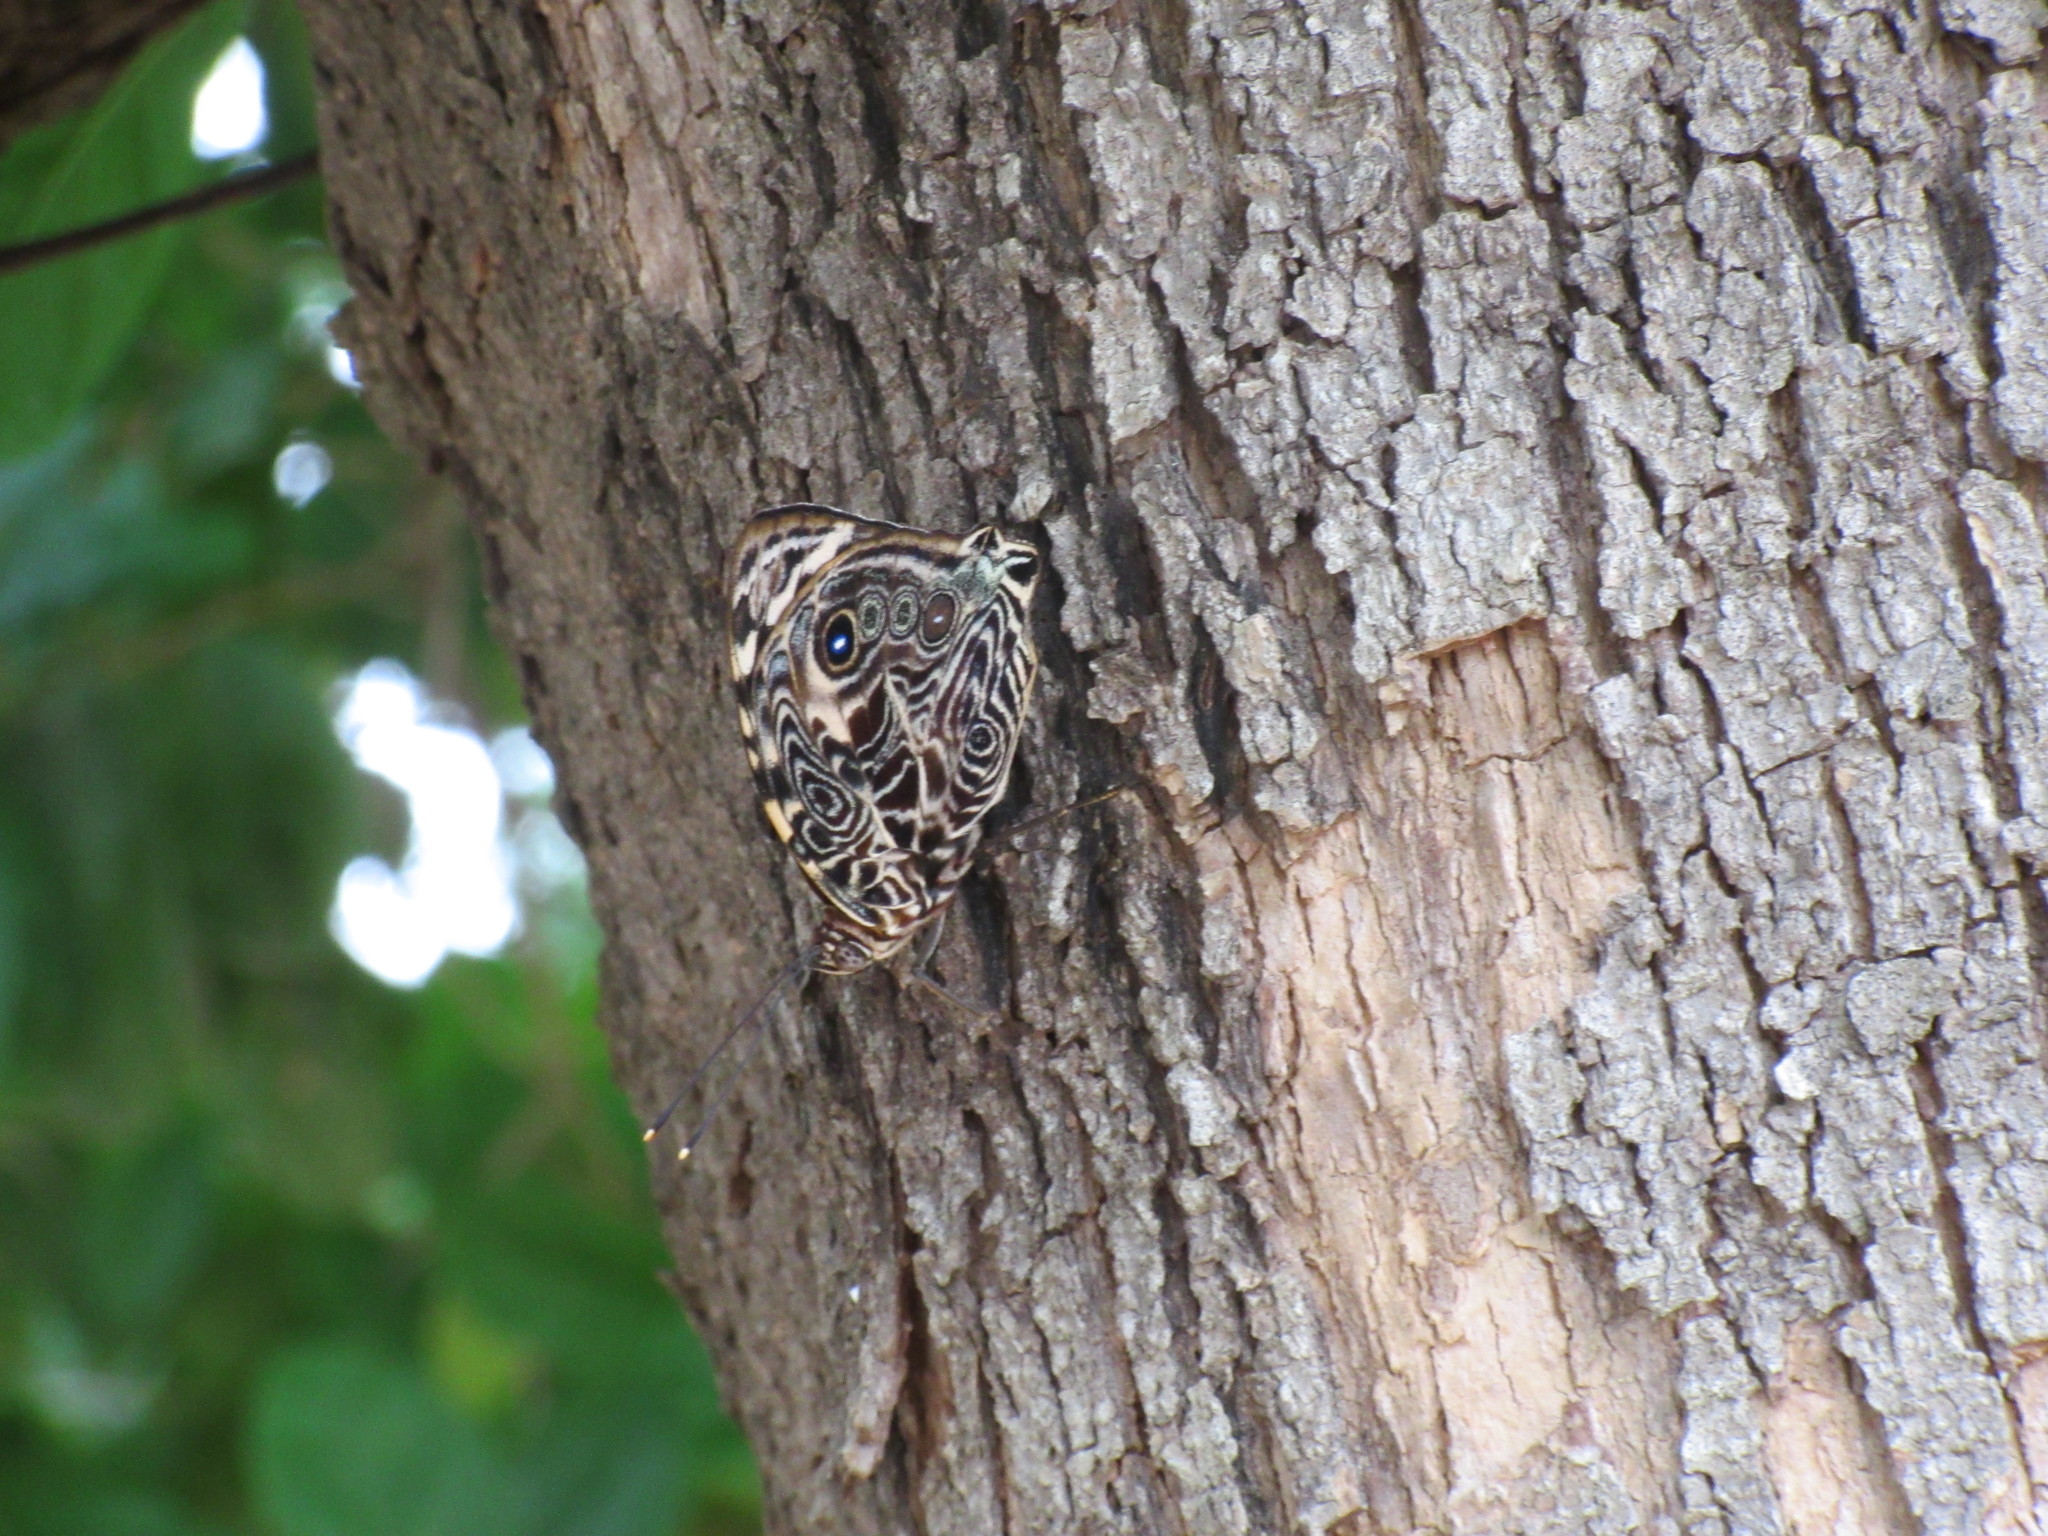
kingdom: Animalia
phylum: Arthropoda
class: Insecta
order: Lepidoptera
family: Nymphalidae
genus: Smyrna
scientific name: Smyrna blomfildia
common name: Blomfild's beauty
